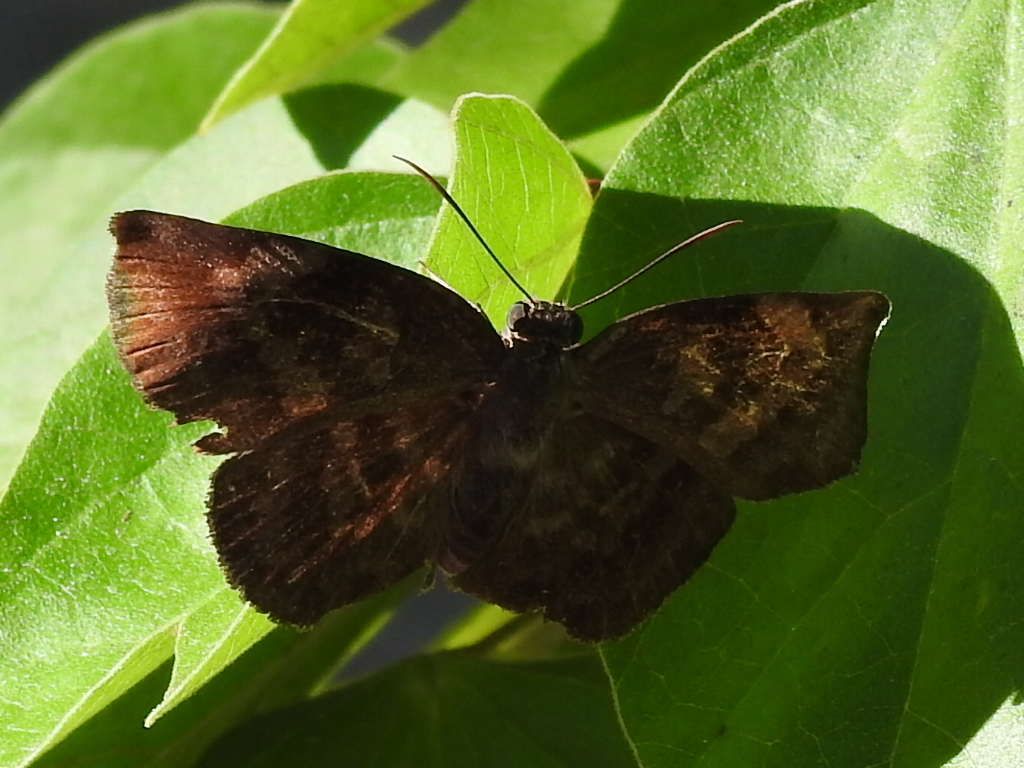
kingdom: Animalia
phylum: Arthropoda
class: Insecta
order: Lepidoptera
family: Hesperiidae
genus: Achlyodes
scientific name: Achlyodes thraso
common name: Sickle-winged skipper
